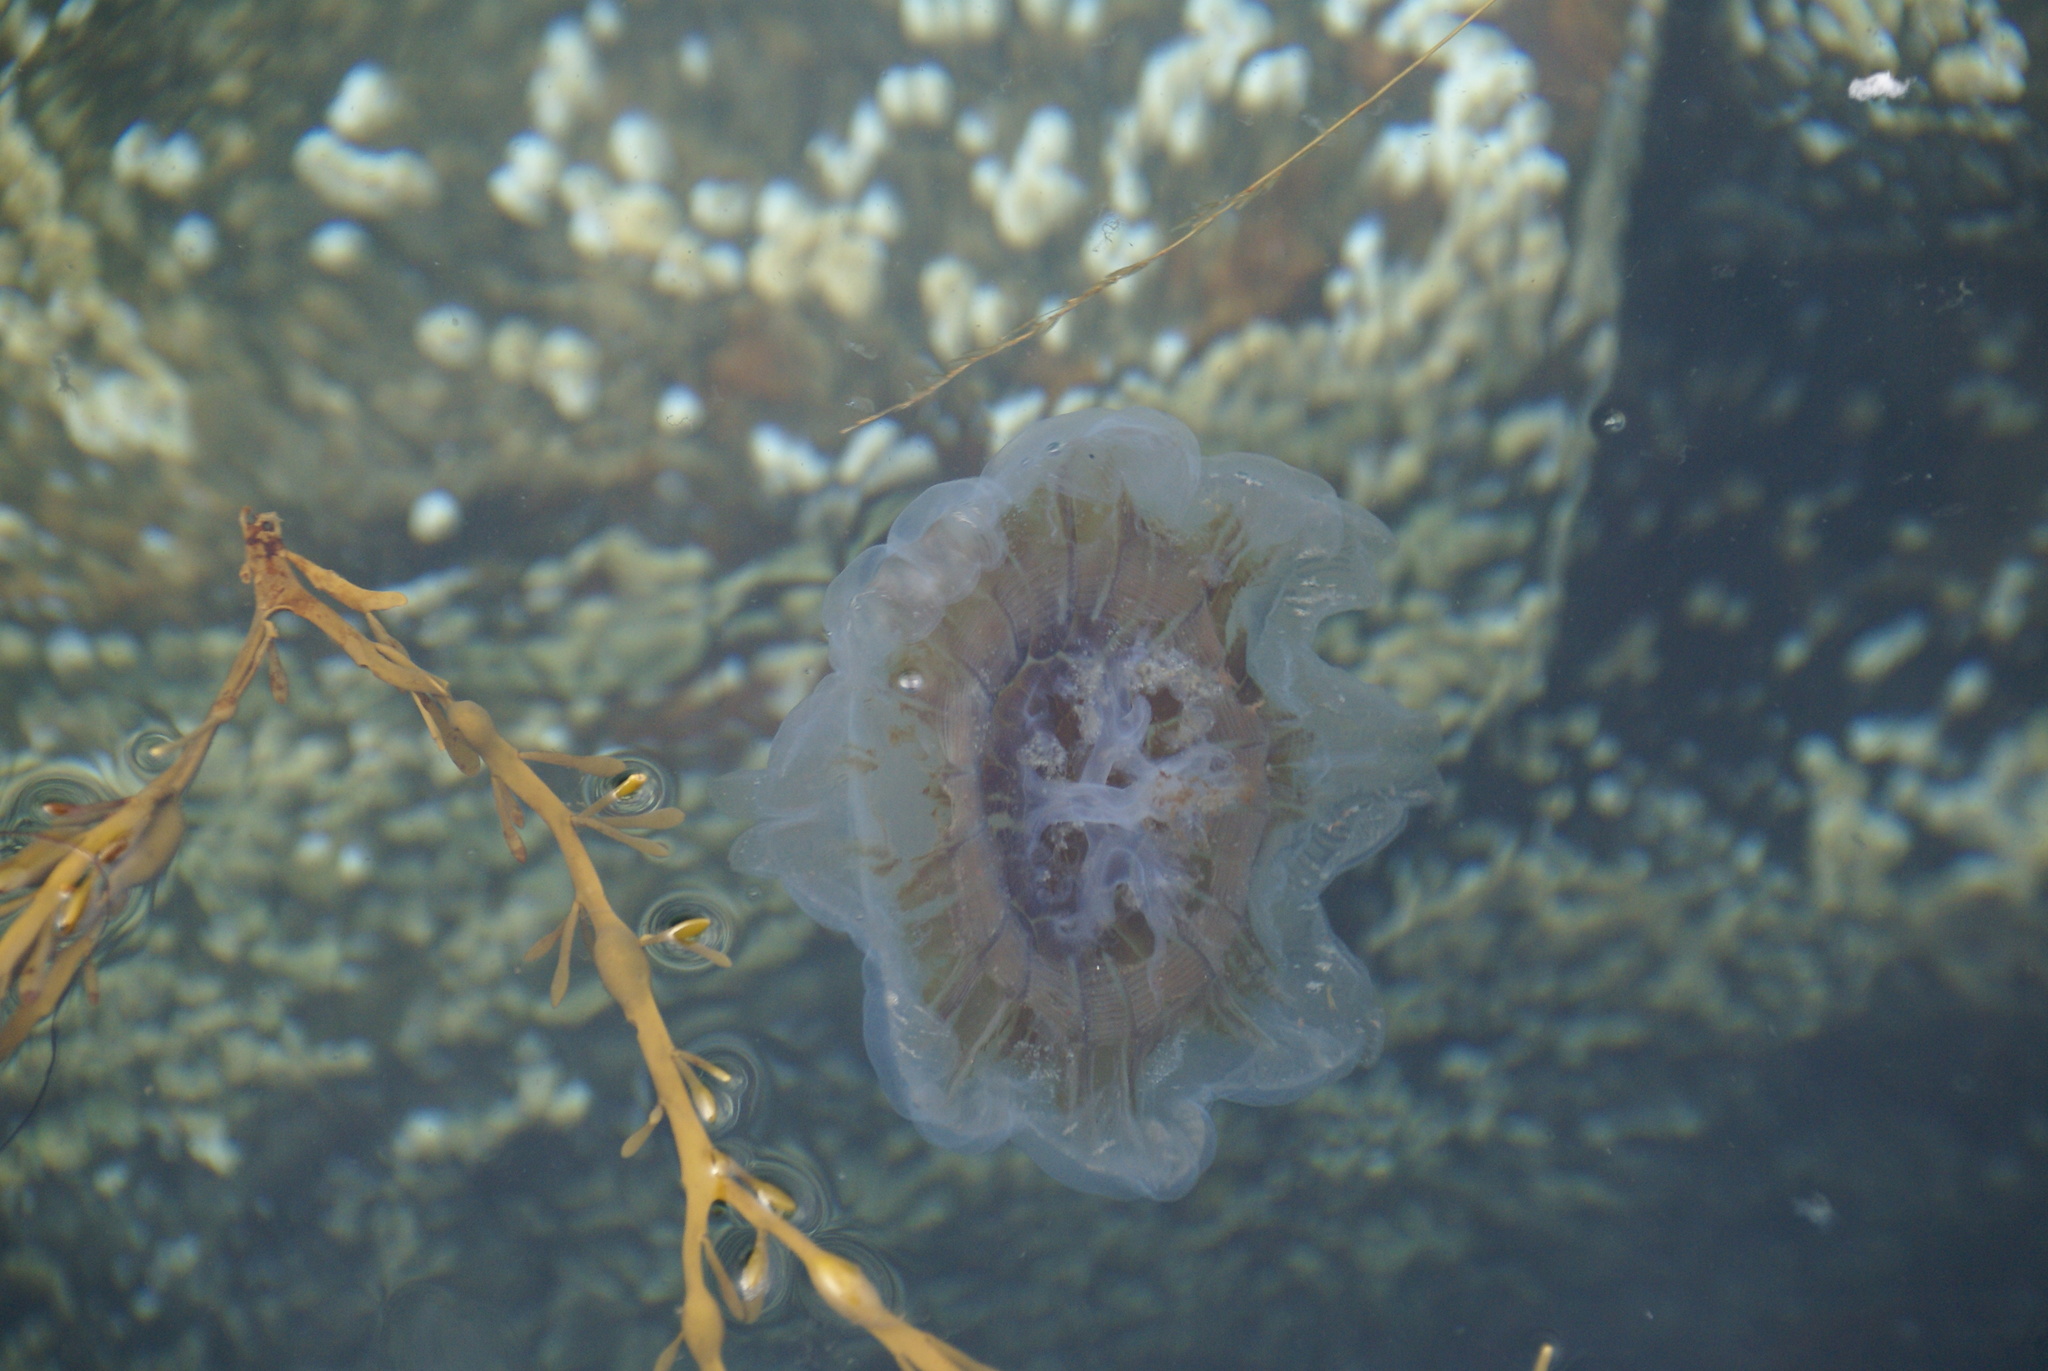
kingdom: Animalia
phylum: Cnidaria
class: Scyphozoa
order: Semaeostomeae
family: Cyaneidae
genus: Cyanea
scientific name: Cyanea capillata
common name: Lion's mane jellyfish
